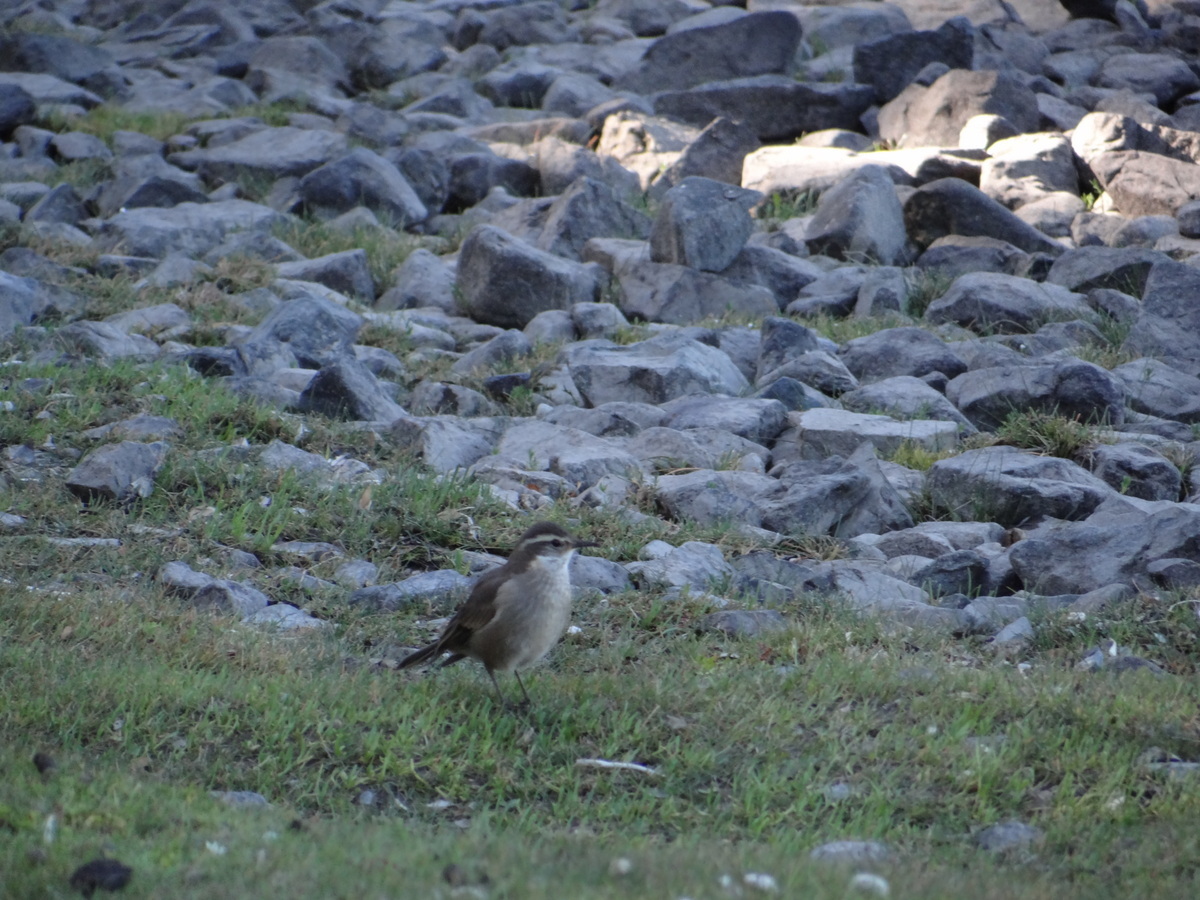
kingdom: Animalia
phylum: Chordata
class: Aves
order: Passeriformes
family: Furnariidae
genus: Cinclodes
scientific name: Cinclodes oustaleti
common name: Grey-flanked cinclodes
